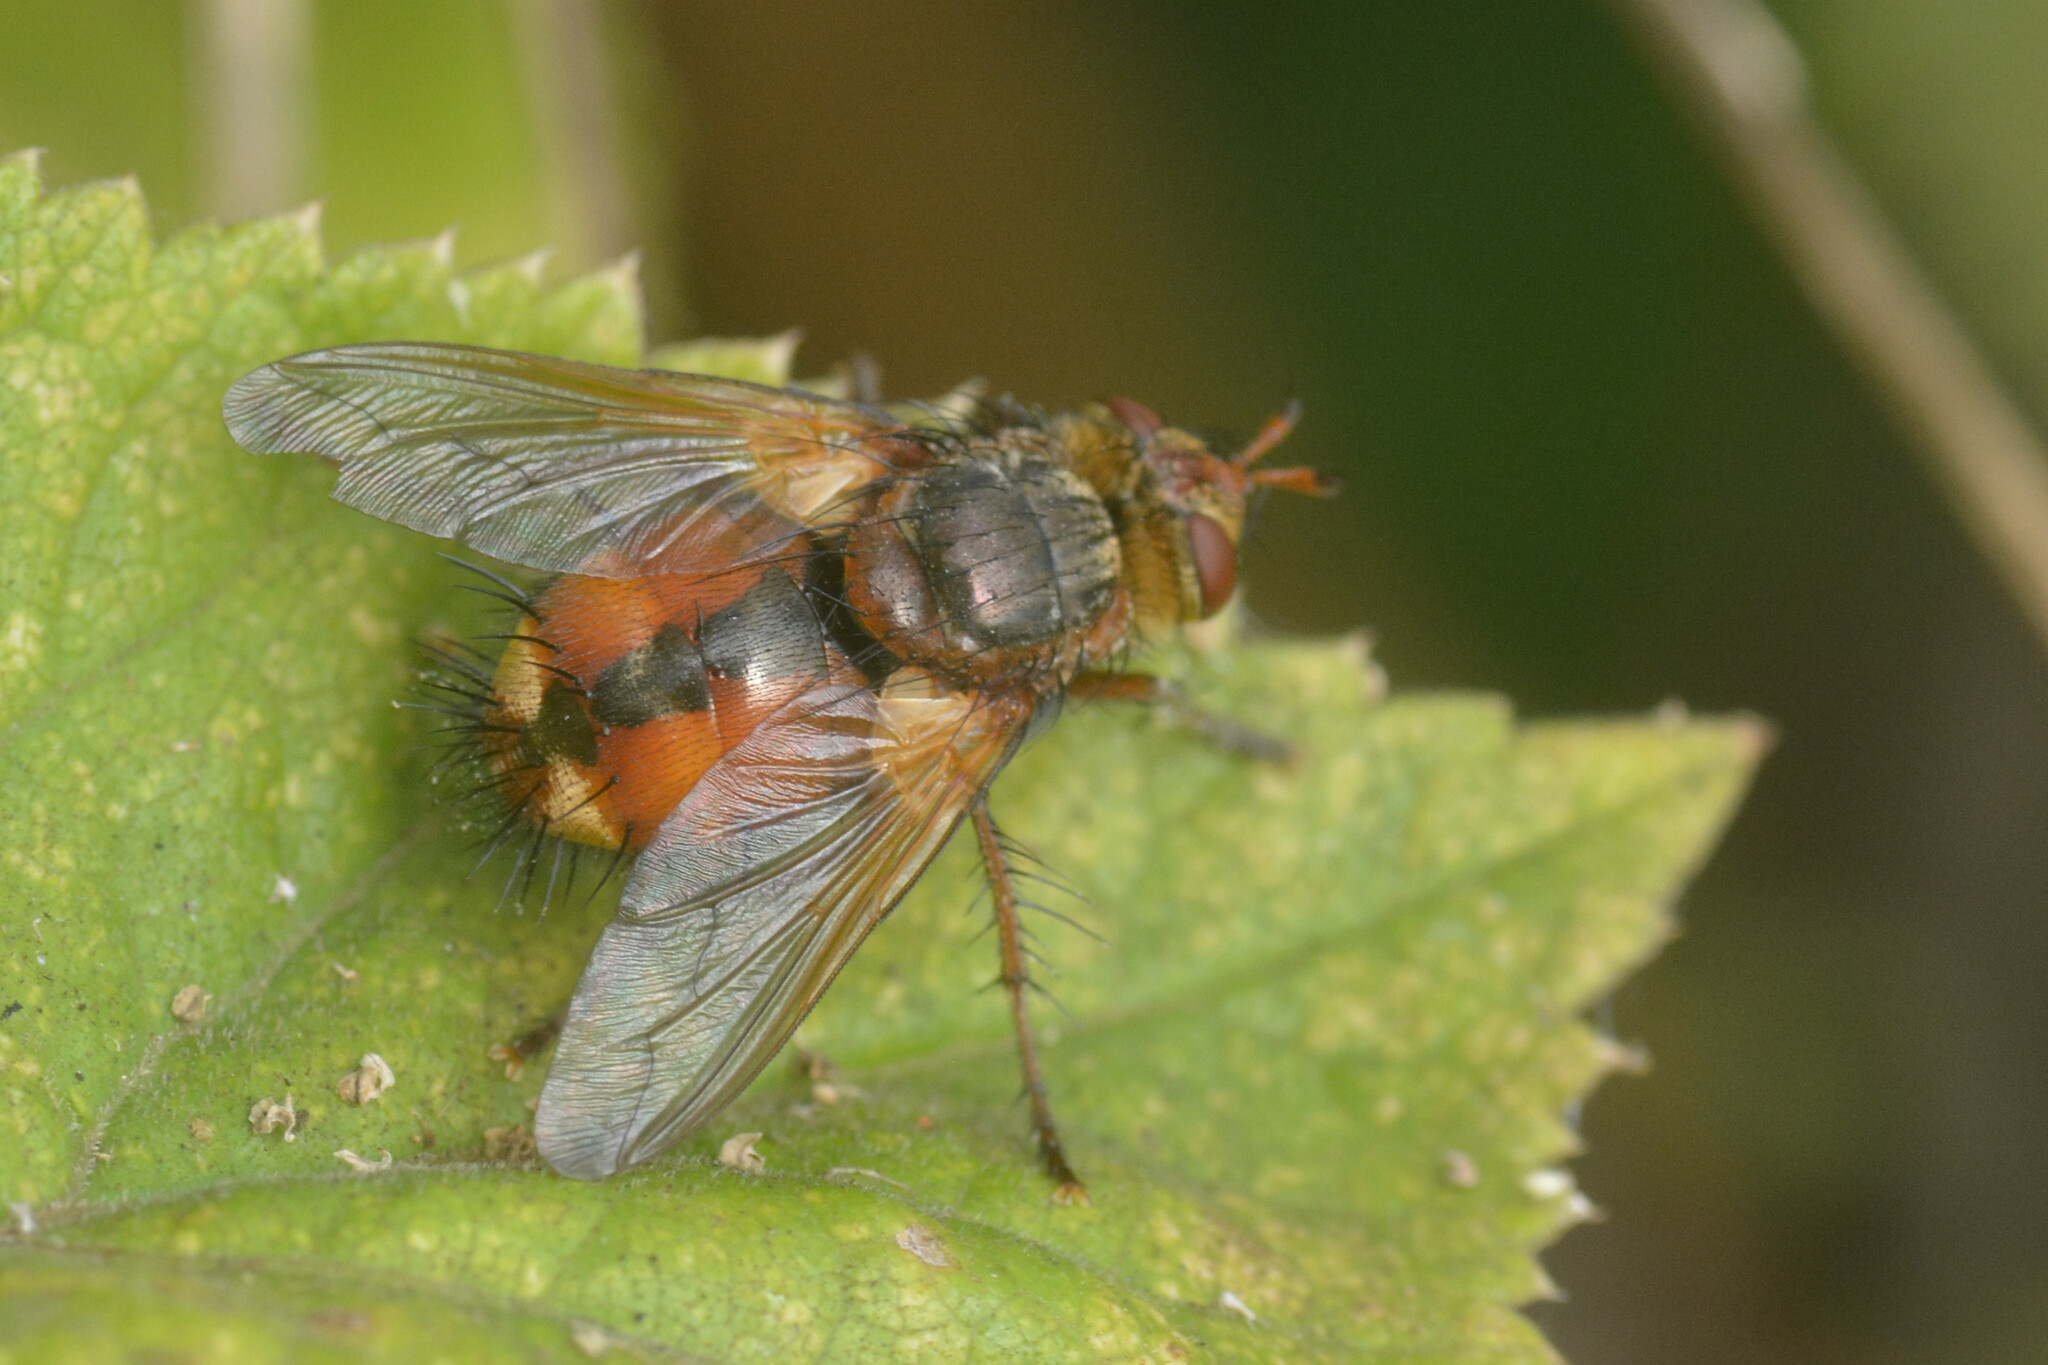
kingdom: Animalia
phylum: Arthropoda
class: Insecta
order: Diptera
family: Tachinidae
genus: Tachina
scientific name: Tachina fera
